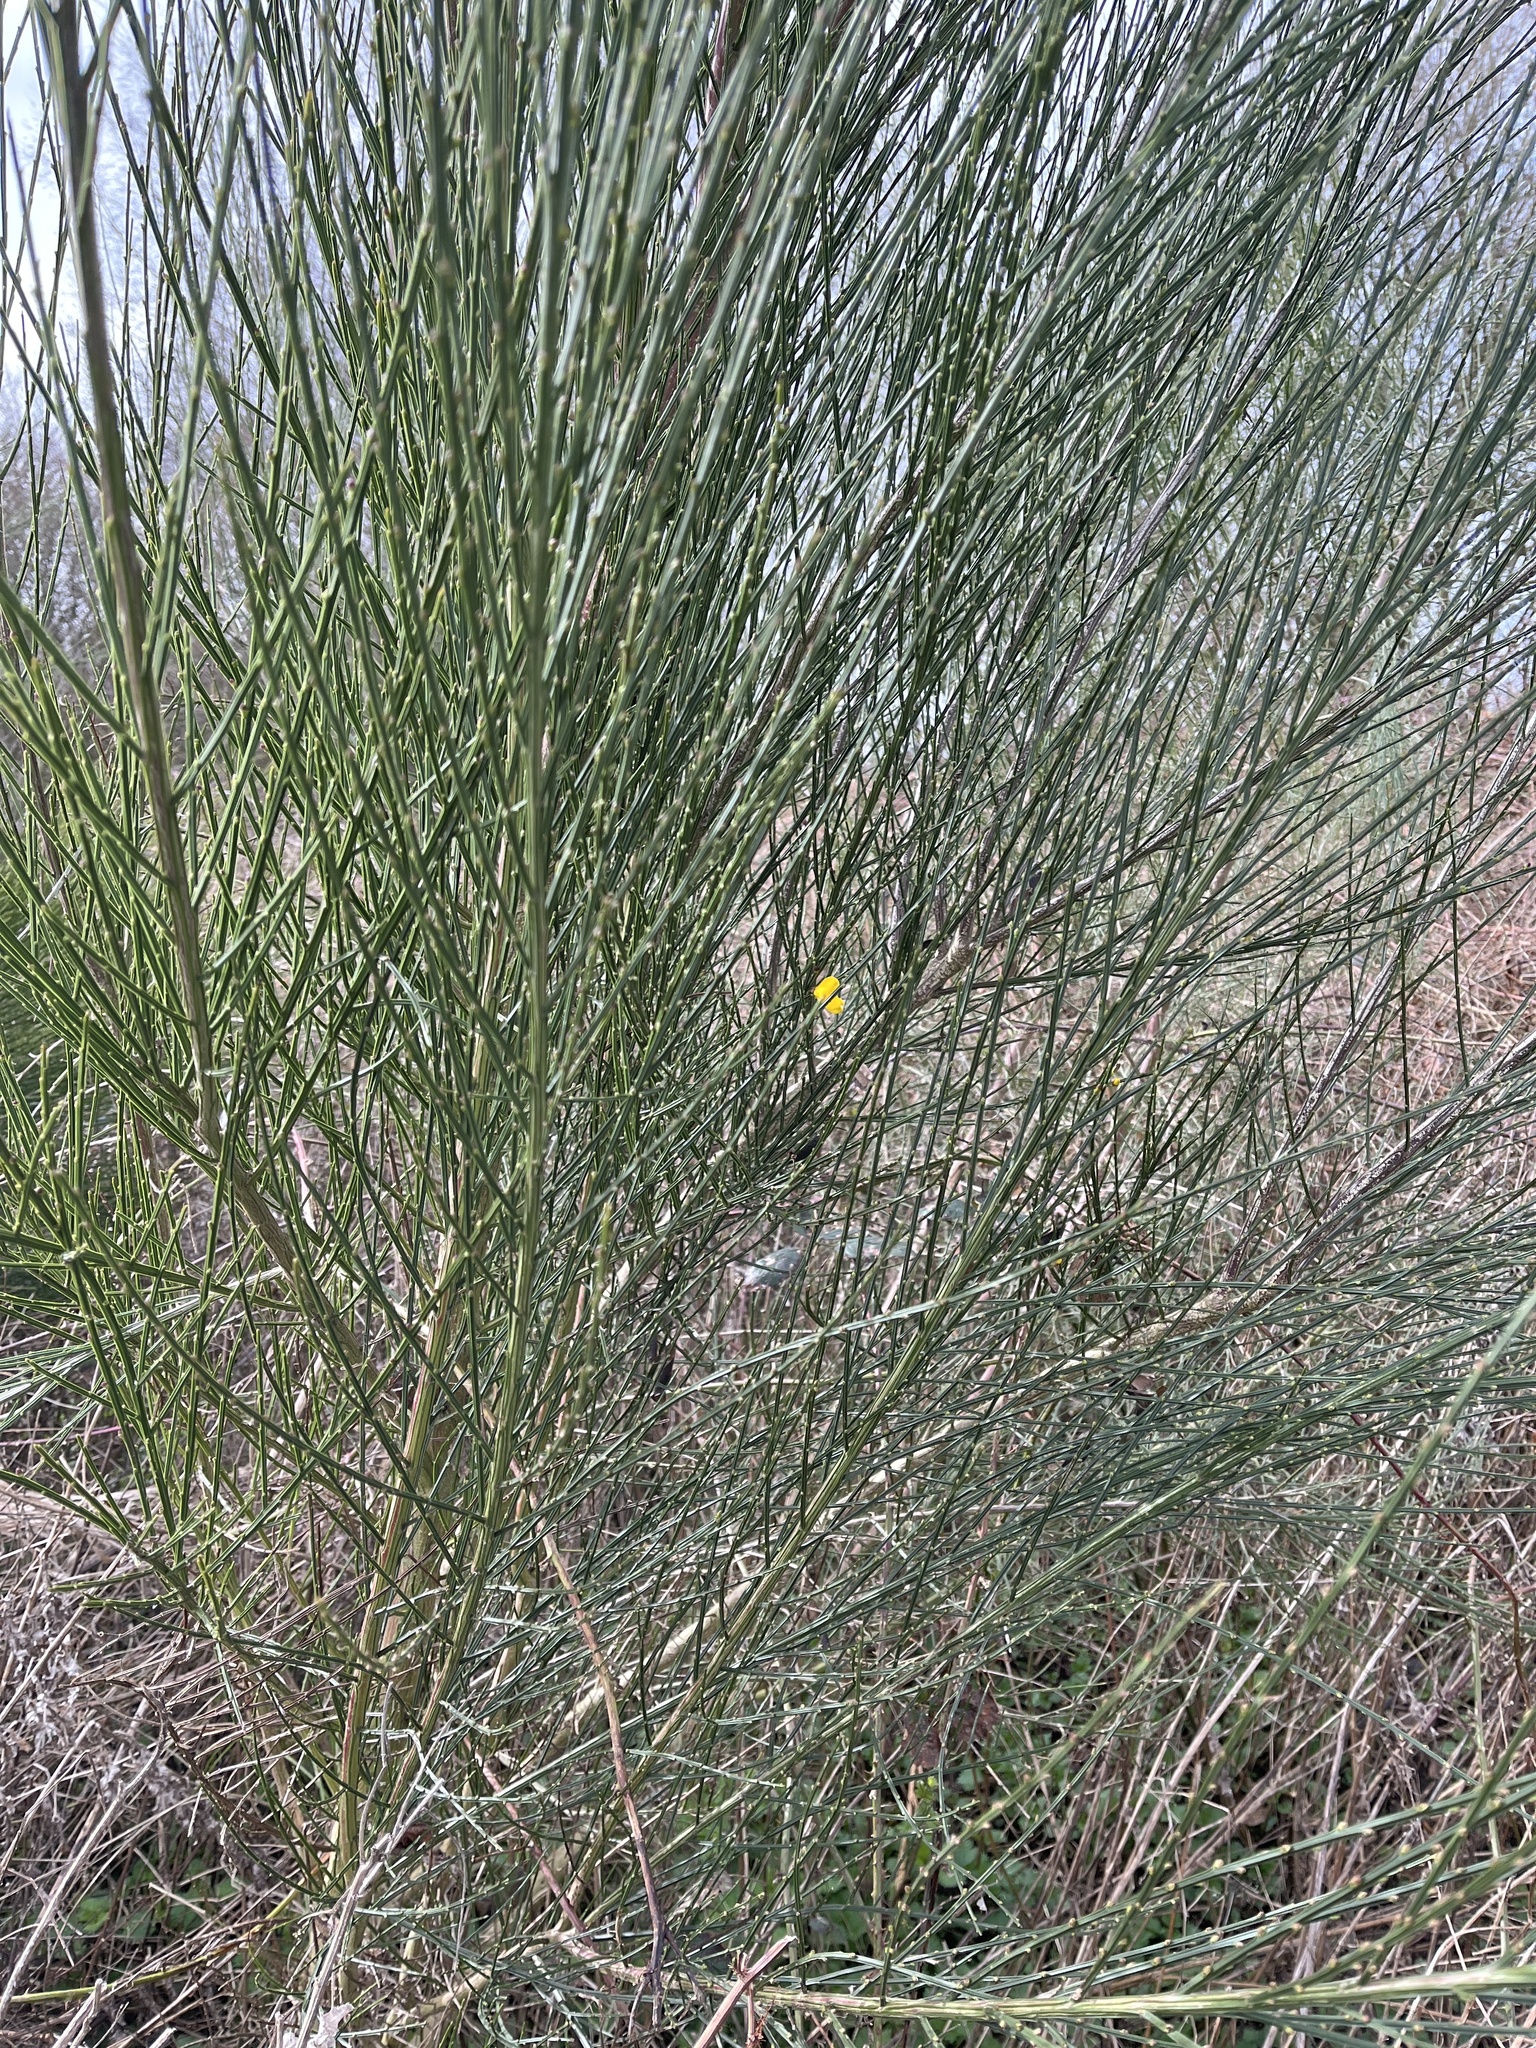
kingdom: Plantae
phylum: Tracheophyta
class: Magnoliopsida
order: Fabales
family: Fabaceae
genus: Cytisus
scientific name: Cytisus scoparius
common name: Scotch broom
